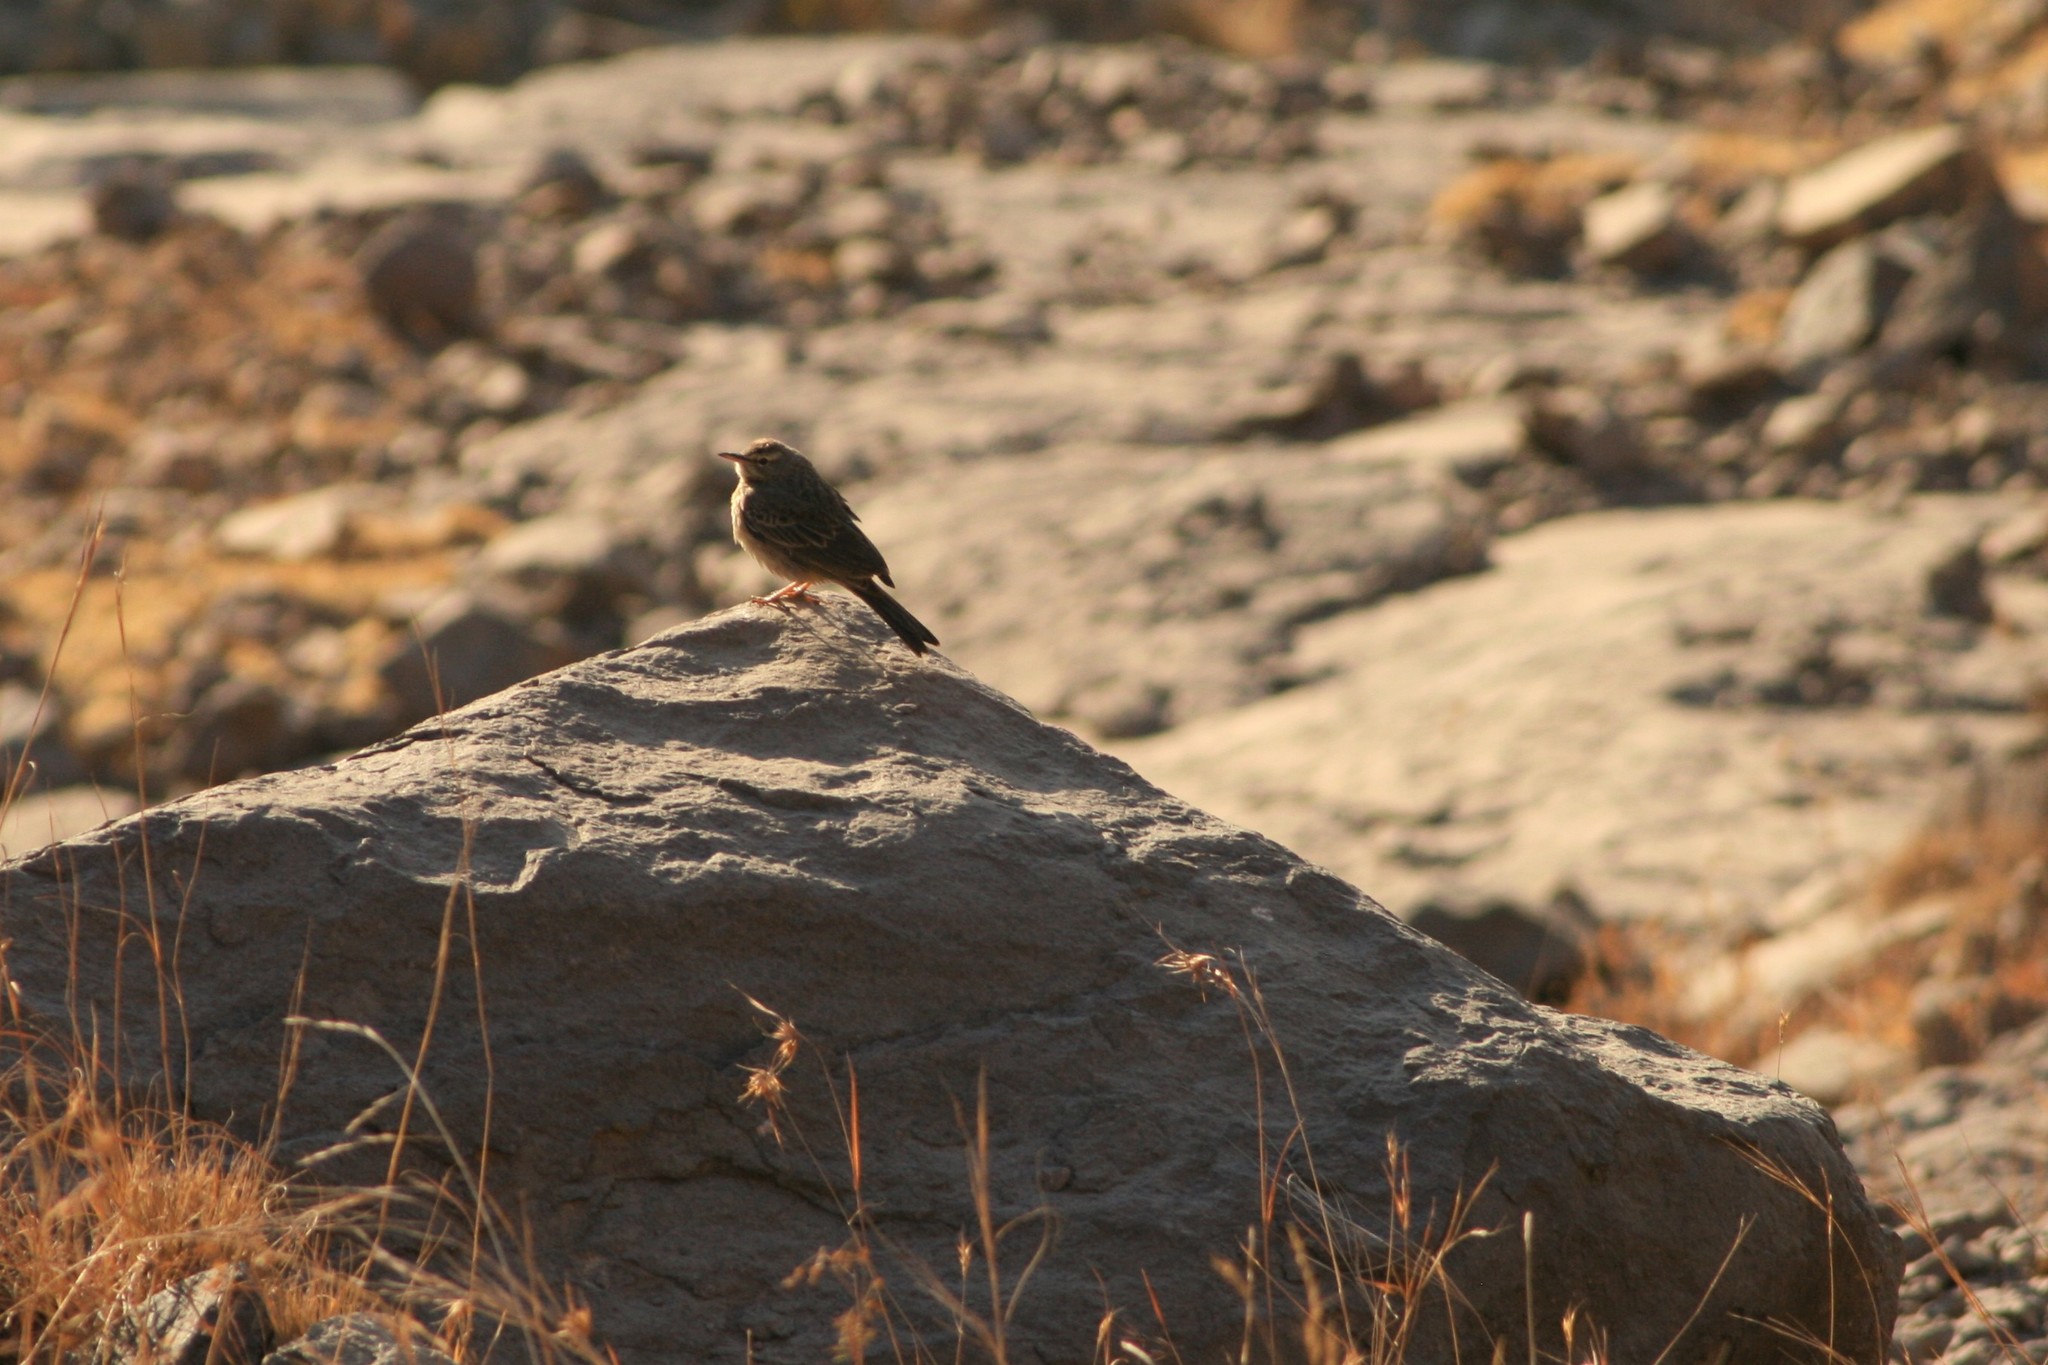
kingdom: Animalia
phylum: Chordata
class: Aves
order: Passeriformes
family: Motacillidae
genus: Anthus
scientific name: Anthus similis
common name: Long-billed pipit
